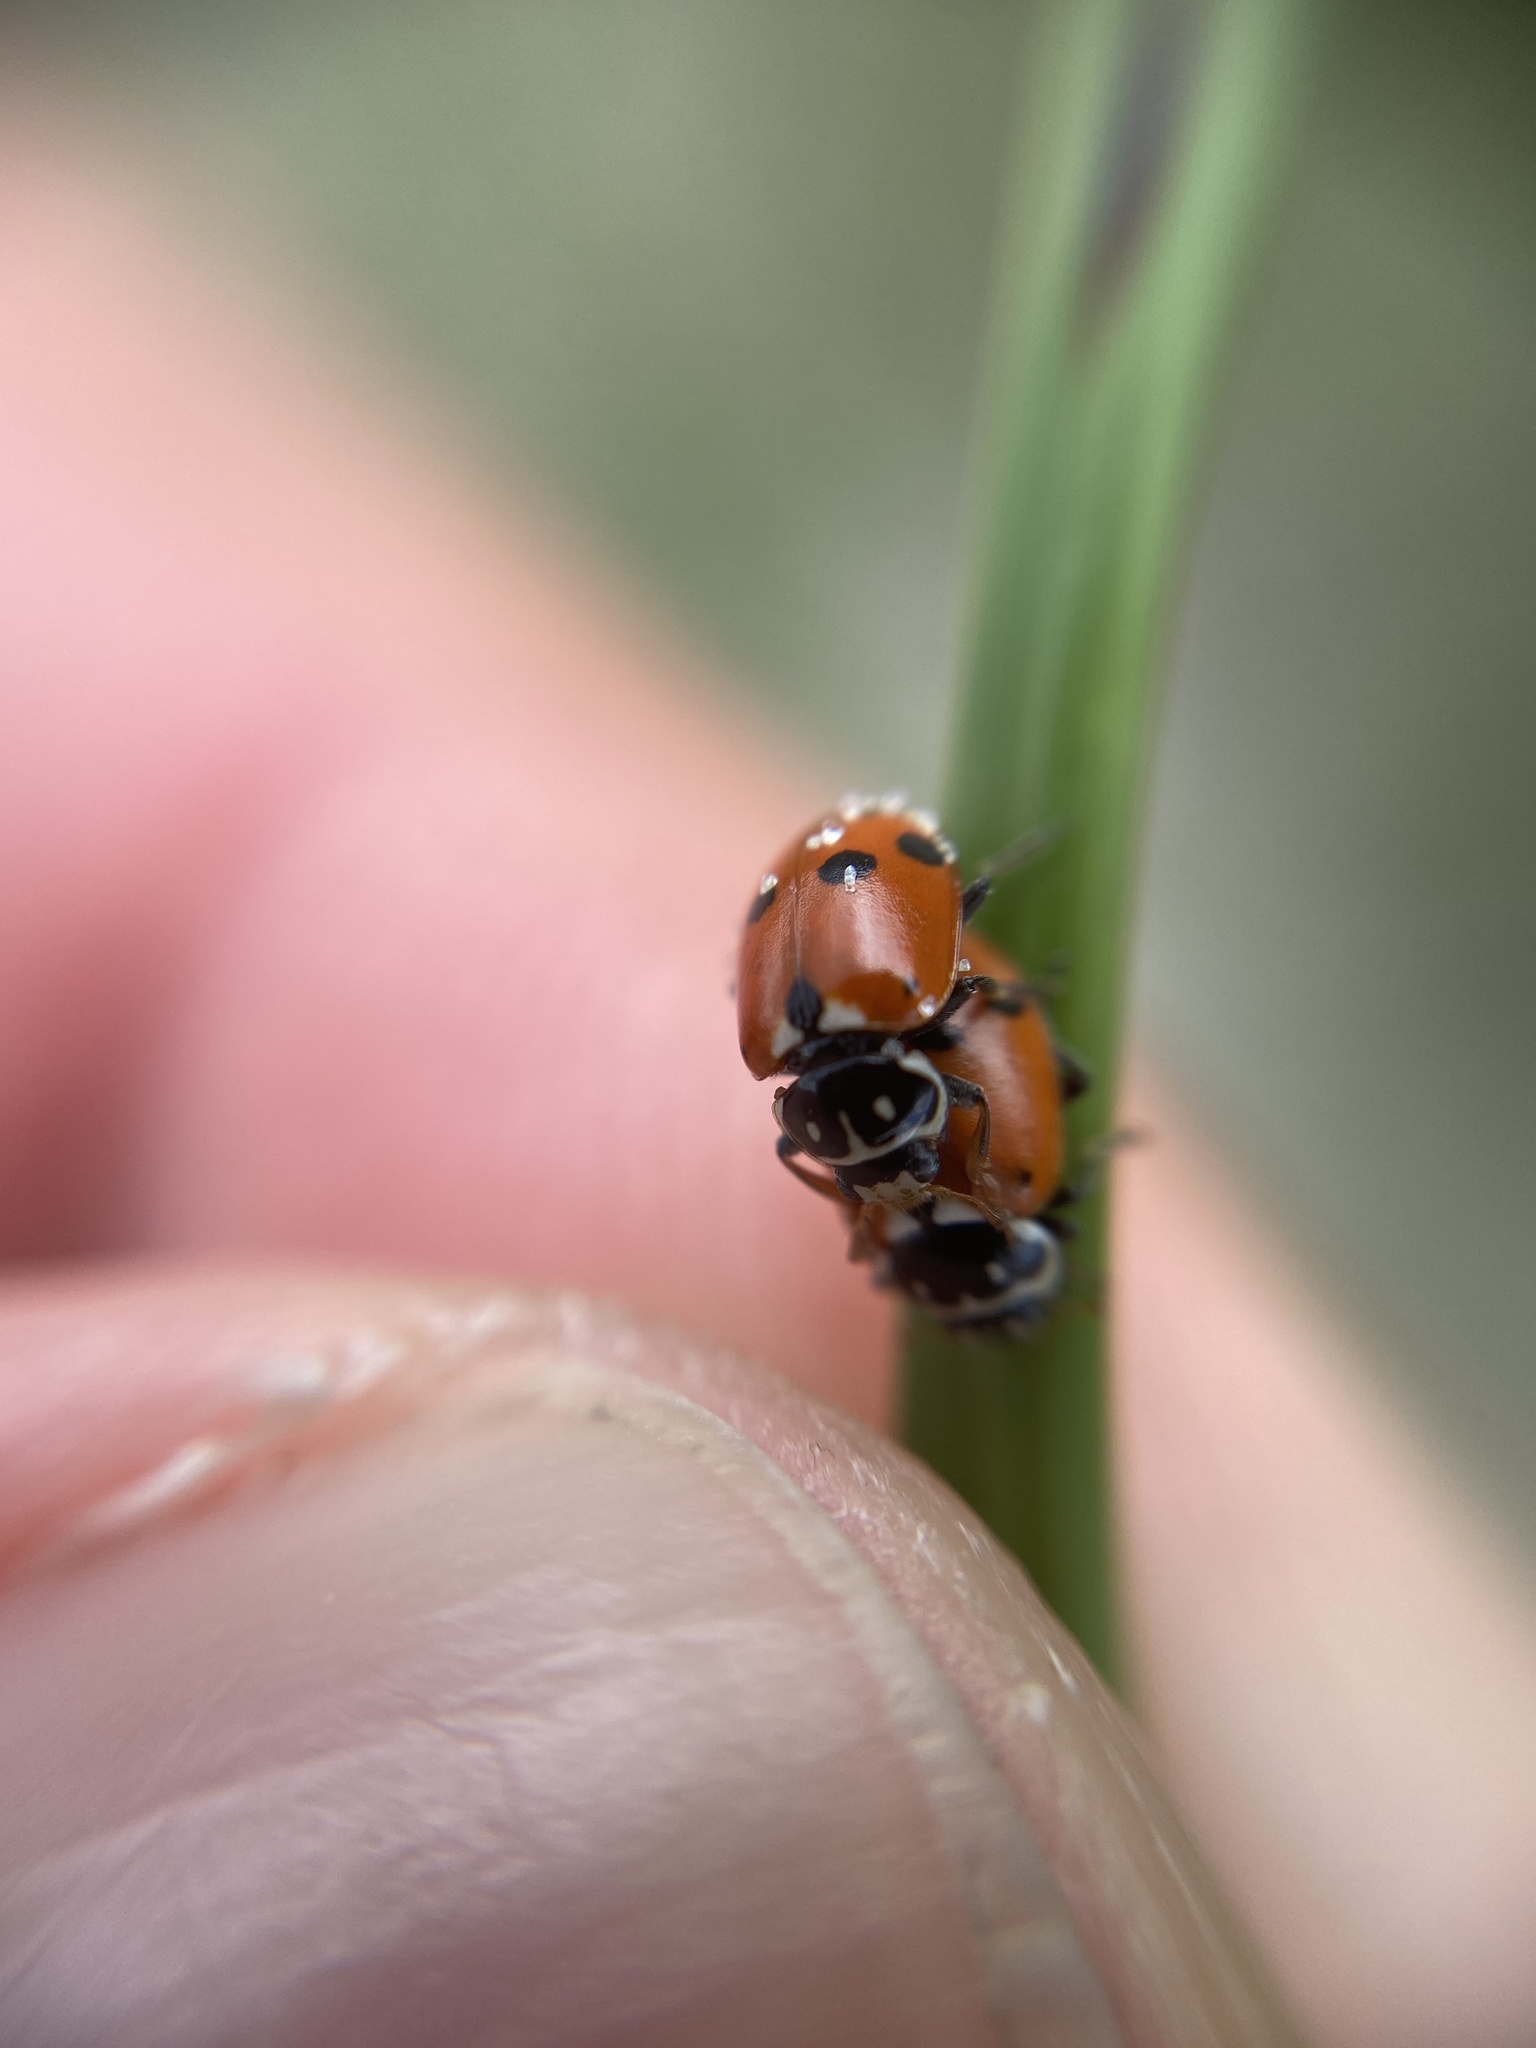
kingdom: Animalia
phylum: Arthropoda
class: Insecta
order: Coleoptera
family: Coccinellidae
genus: Hippodamia
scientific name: Hippodamia variegata
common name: Ladybird beetle
